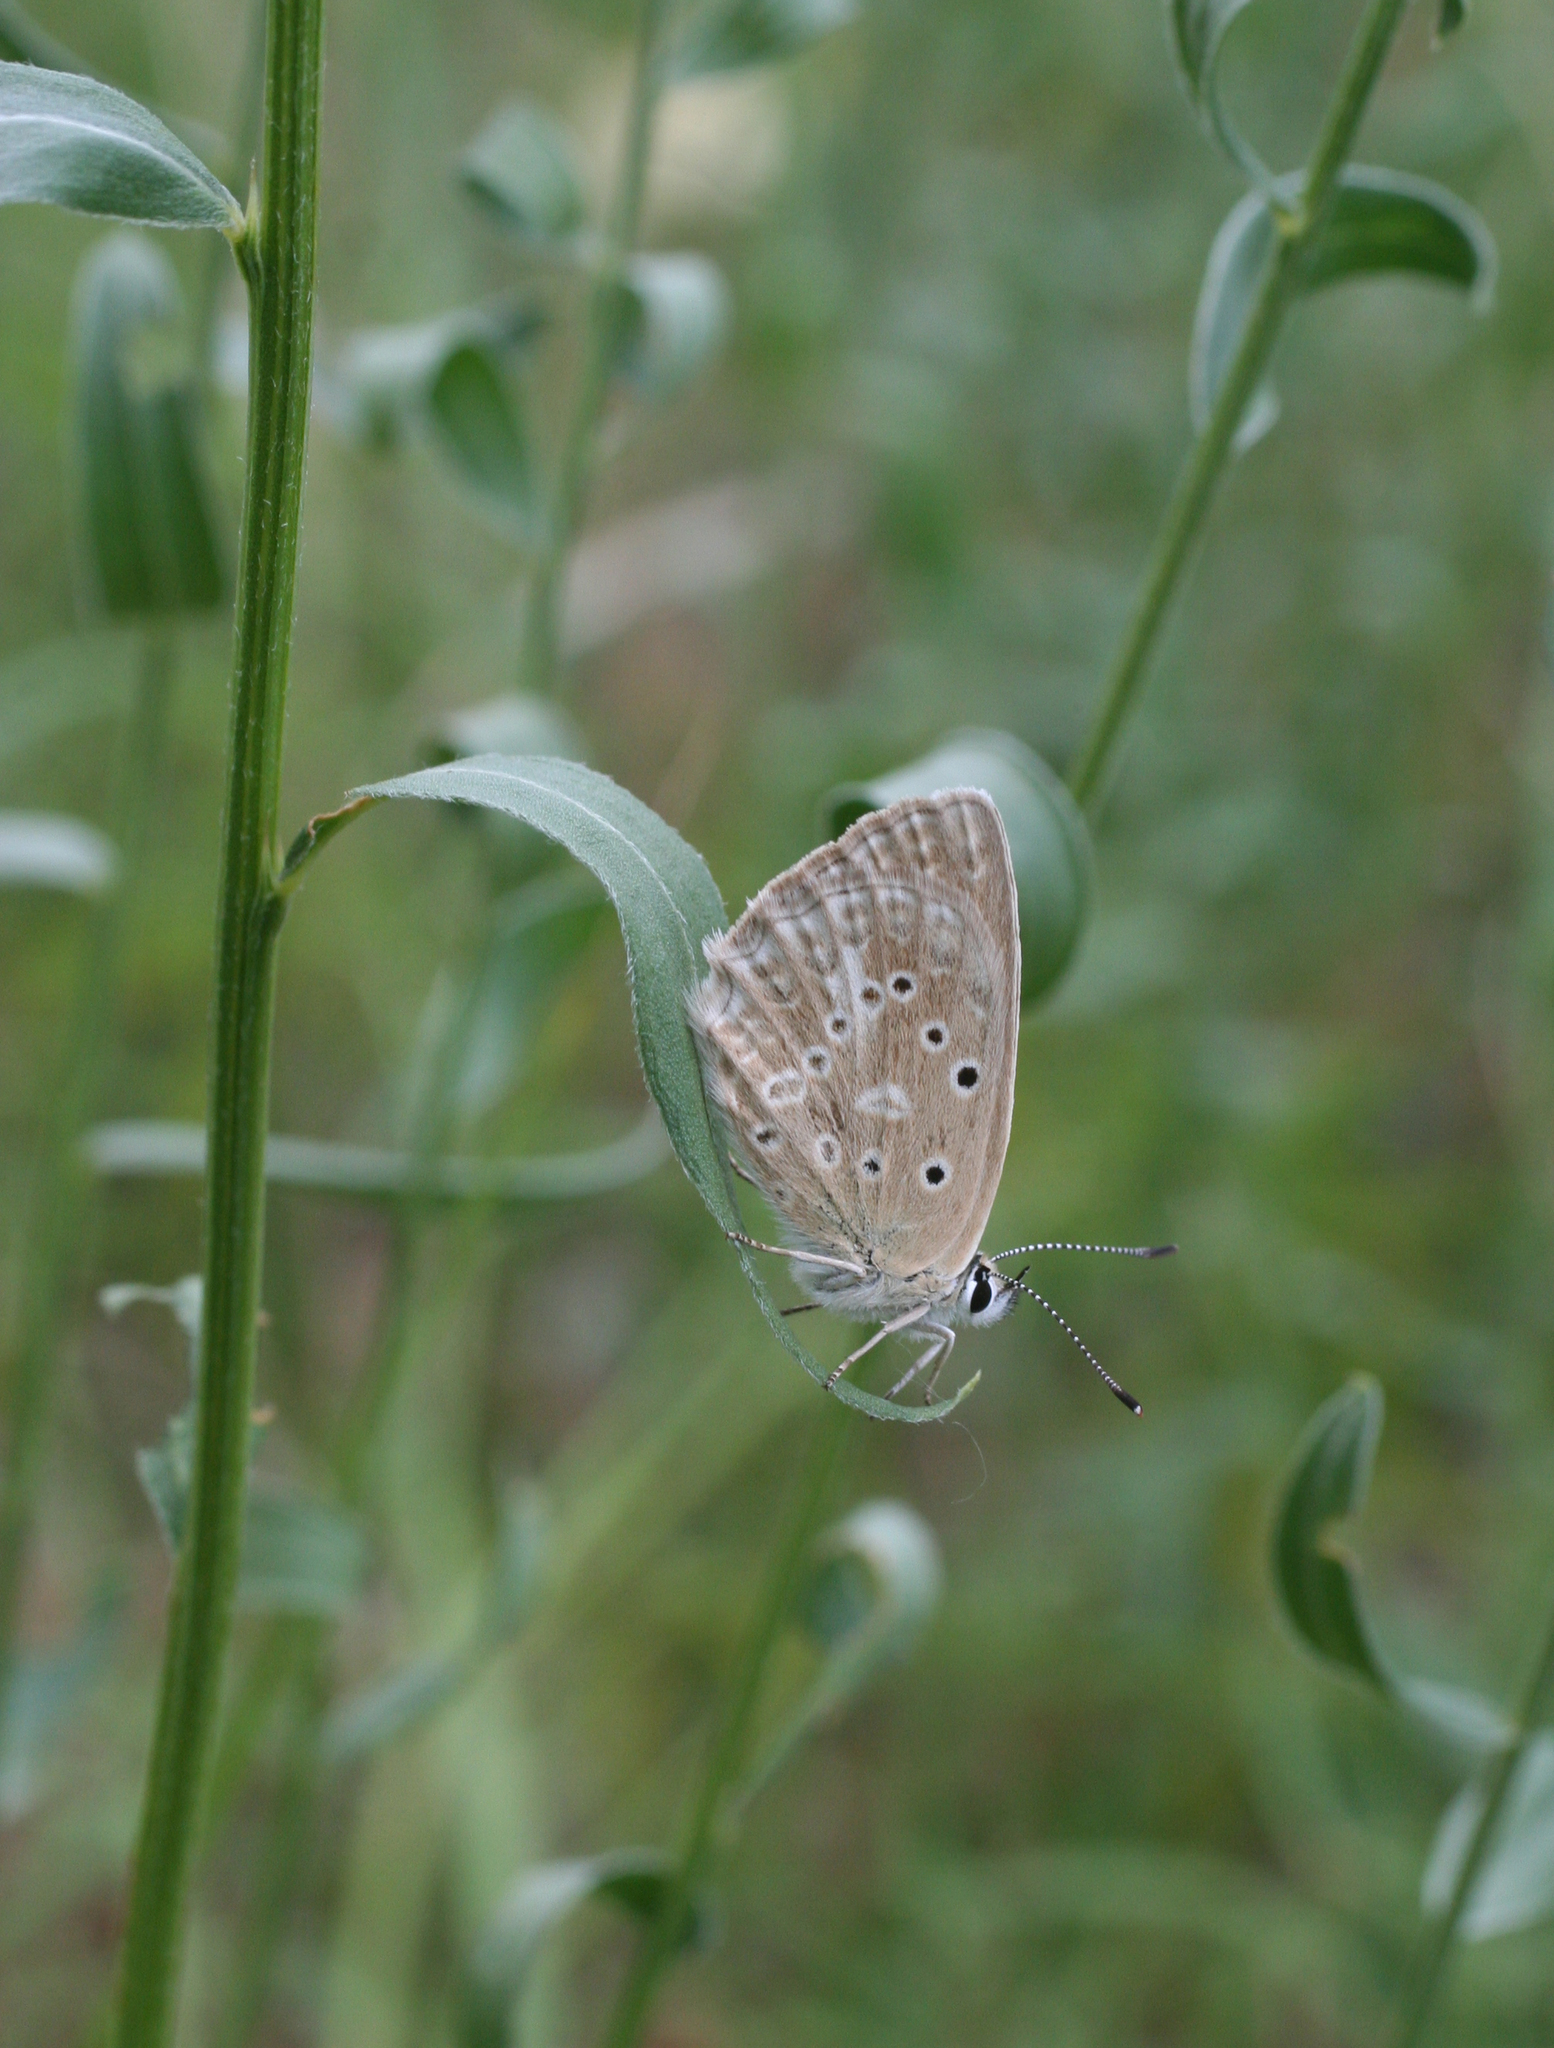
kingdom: Animalia
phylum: Arthropoda
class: Insecta
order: Lepidoptera
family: Lycaenidae
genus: Polyommatus
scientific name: Polyommatus daphnis
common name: Meleager's blue
